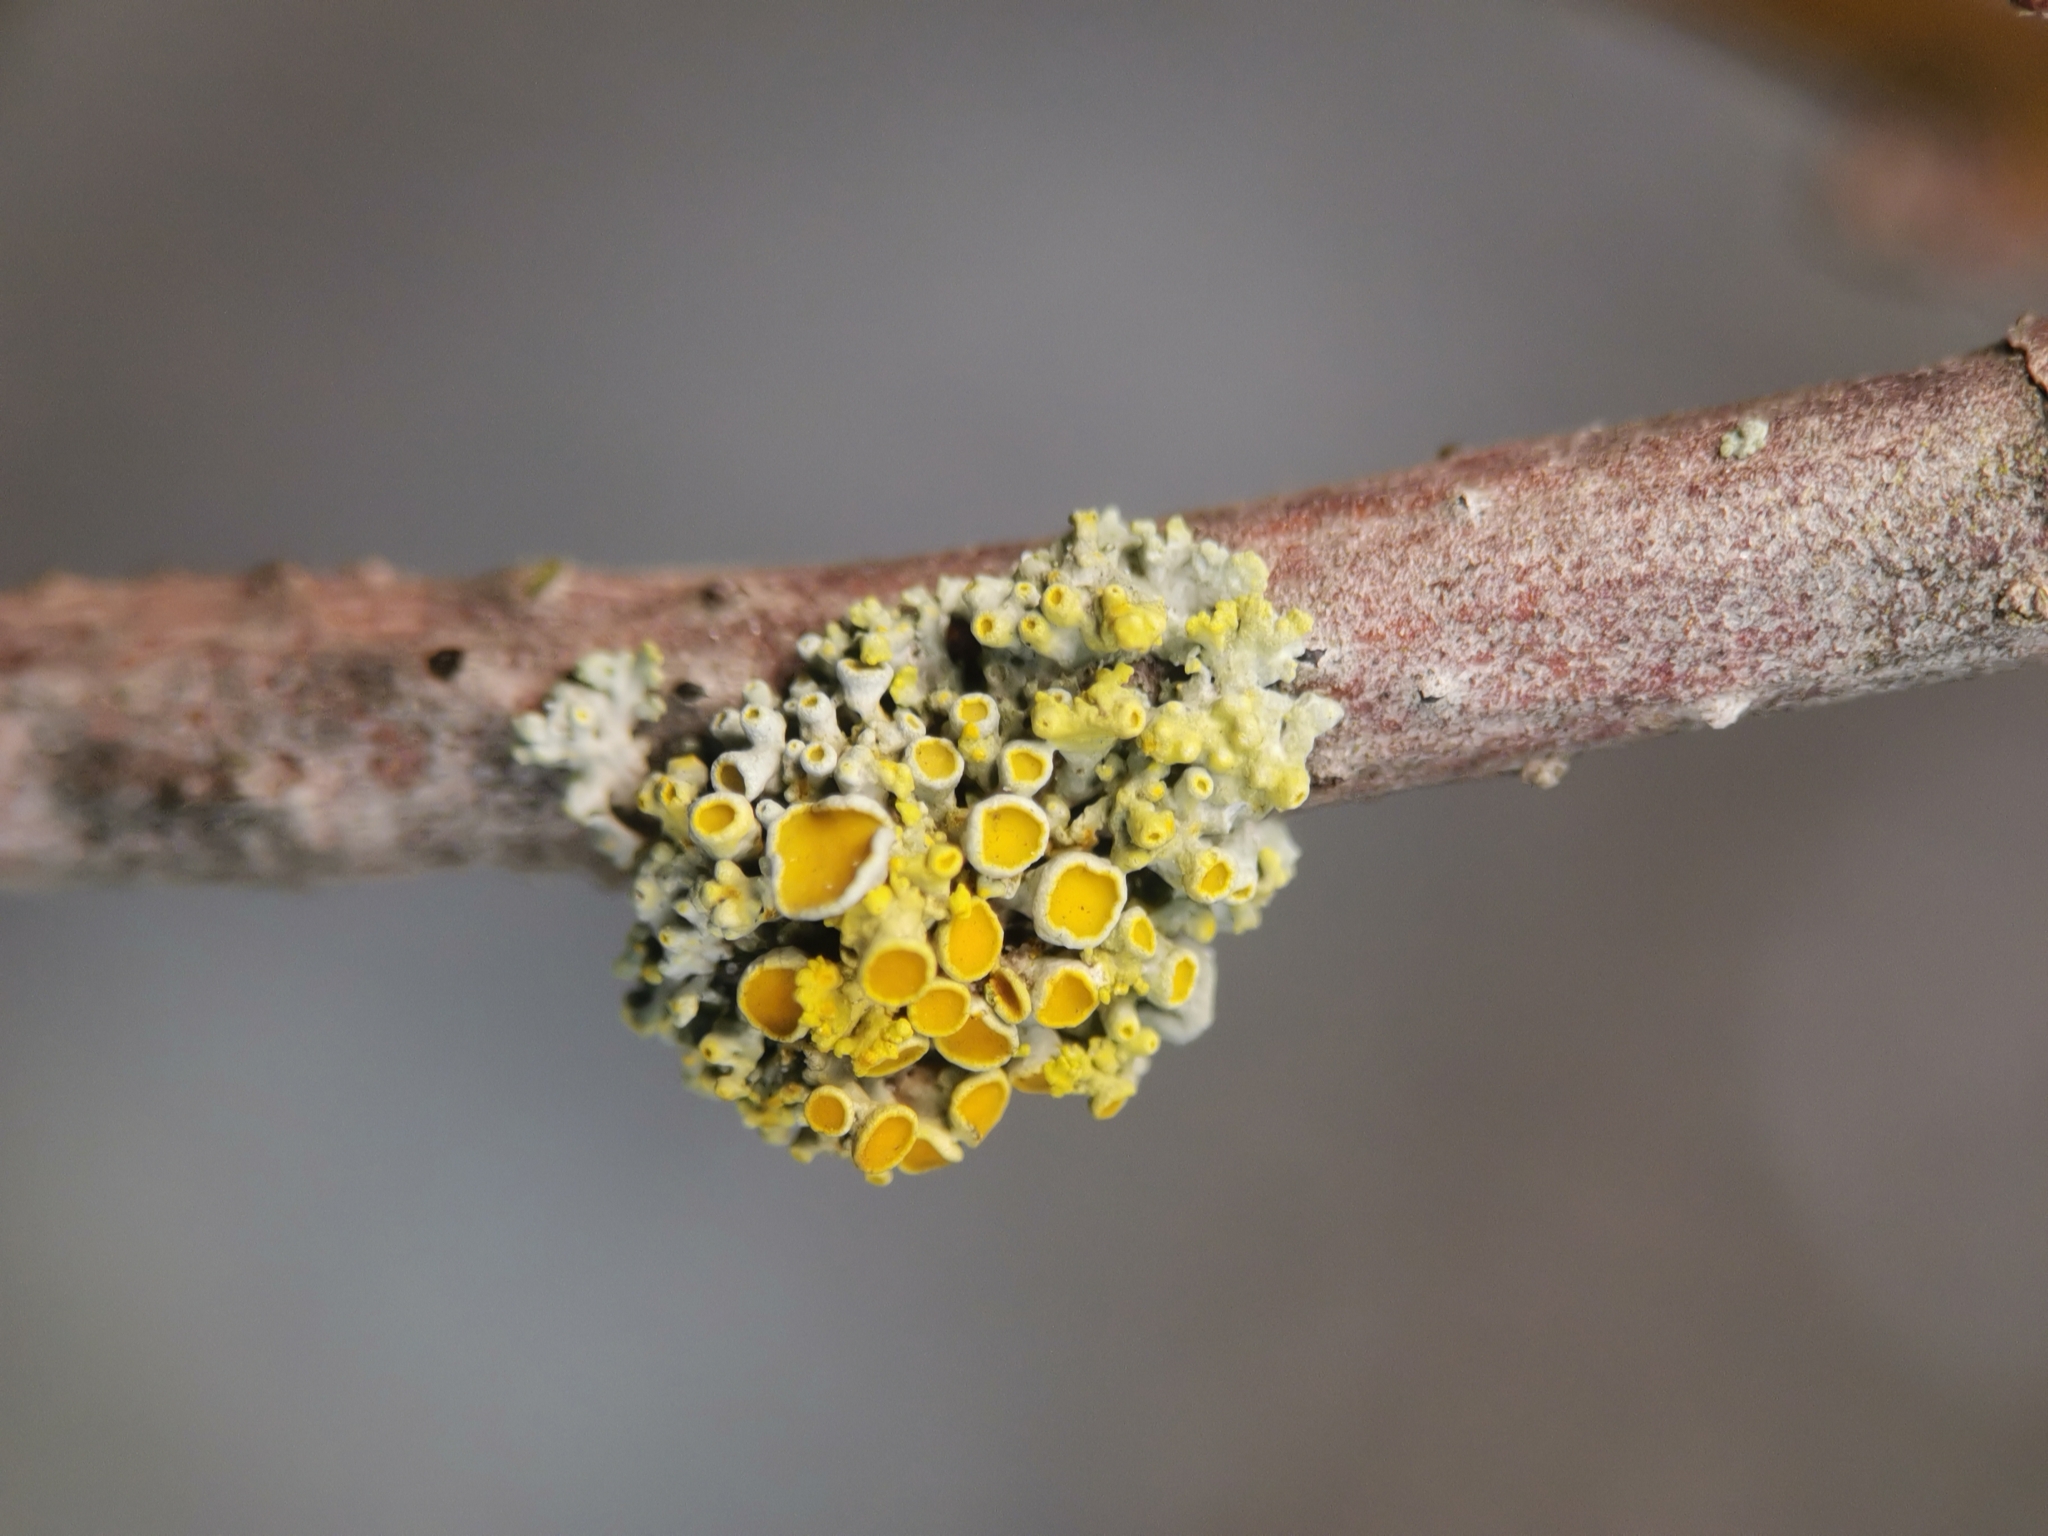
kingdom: Fungi
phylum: Ascomycota
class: Lecanoromycetes
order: Teloschistales
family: Teloschistaceae
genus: Polycauliona
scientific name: Polycauliona polycarpa
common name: Pin-cushion sunburst lichen
